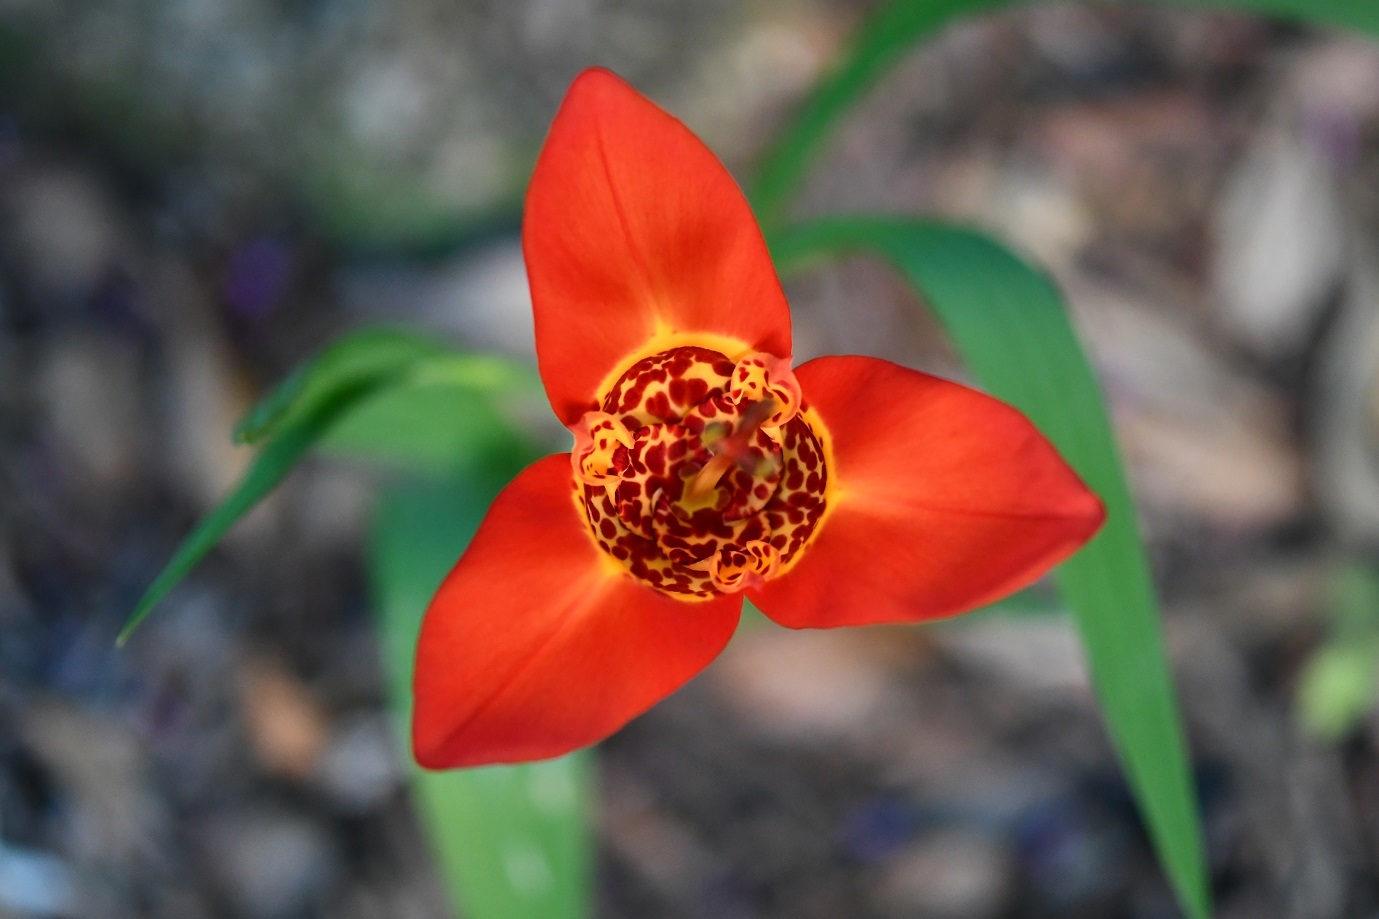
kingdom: Plantae
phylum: Tracheophyta
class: Liliopsida
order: Asparagales
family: Iridaceae
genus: Tigridia
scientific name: Tigridia pavonia
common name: Peacock-flower
